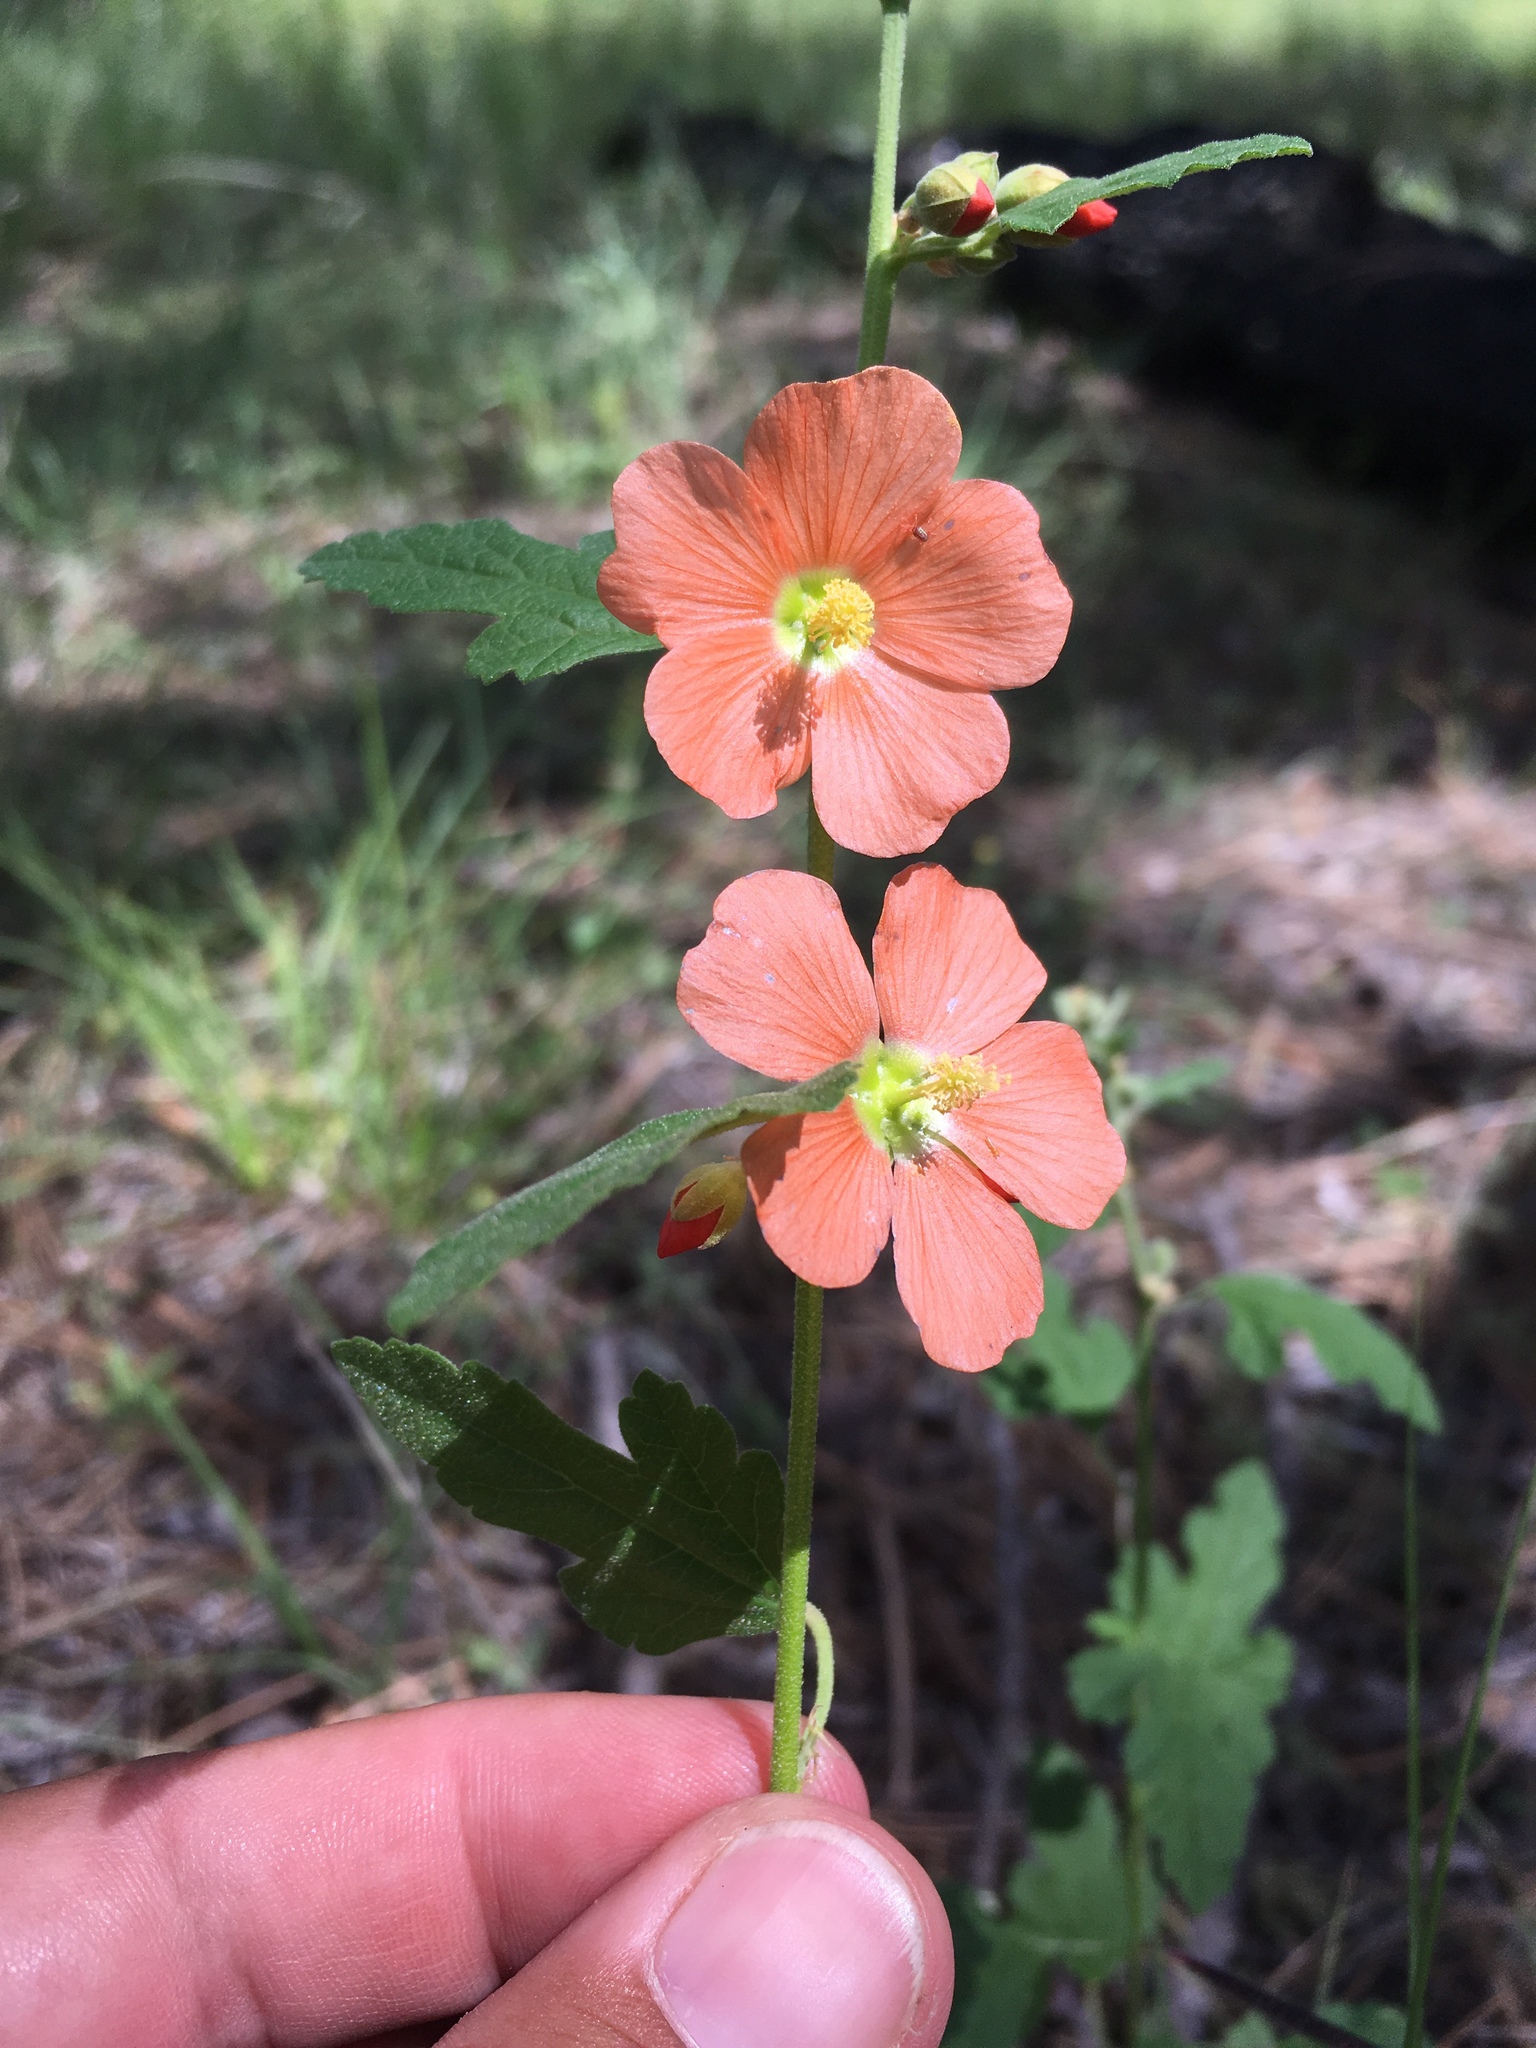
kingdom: Plantae
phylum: Tracheophyta
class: Magnoliopsida
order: Malvales
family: Malvaceae
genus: Sphaeralcea
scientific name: Sphaeralcea fendleri
